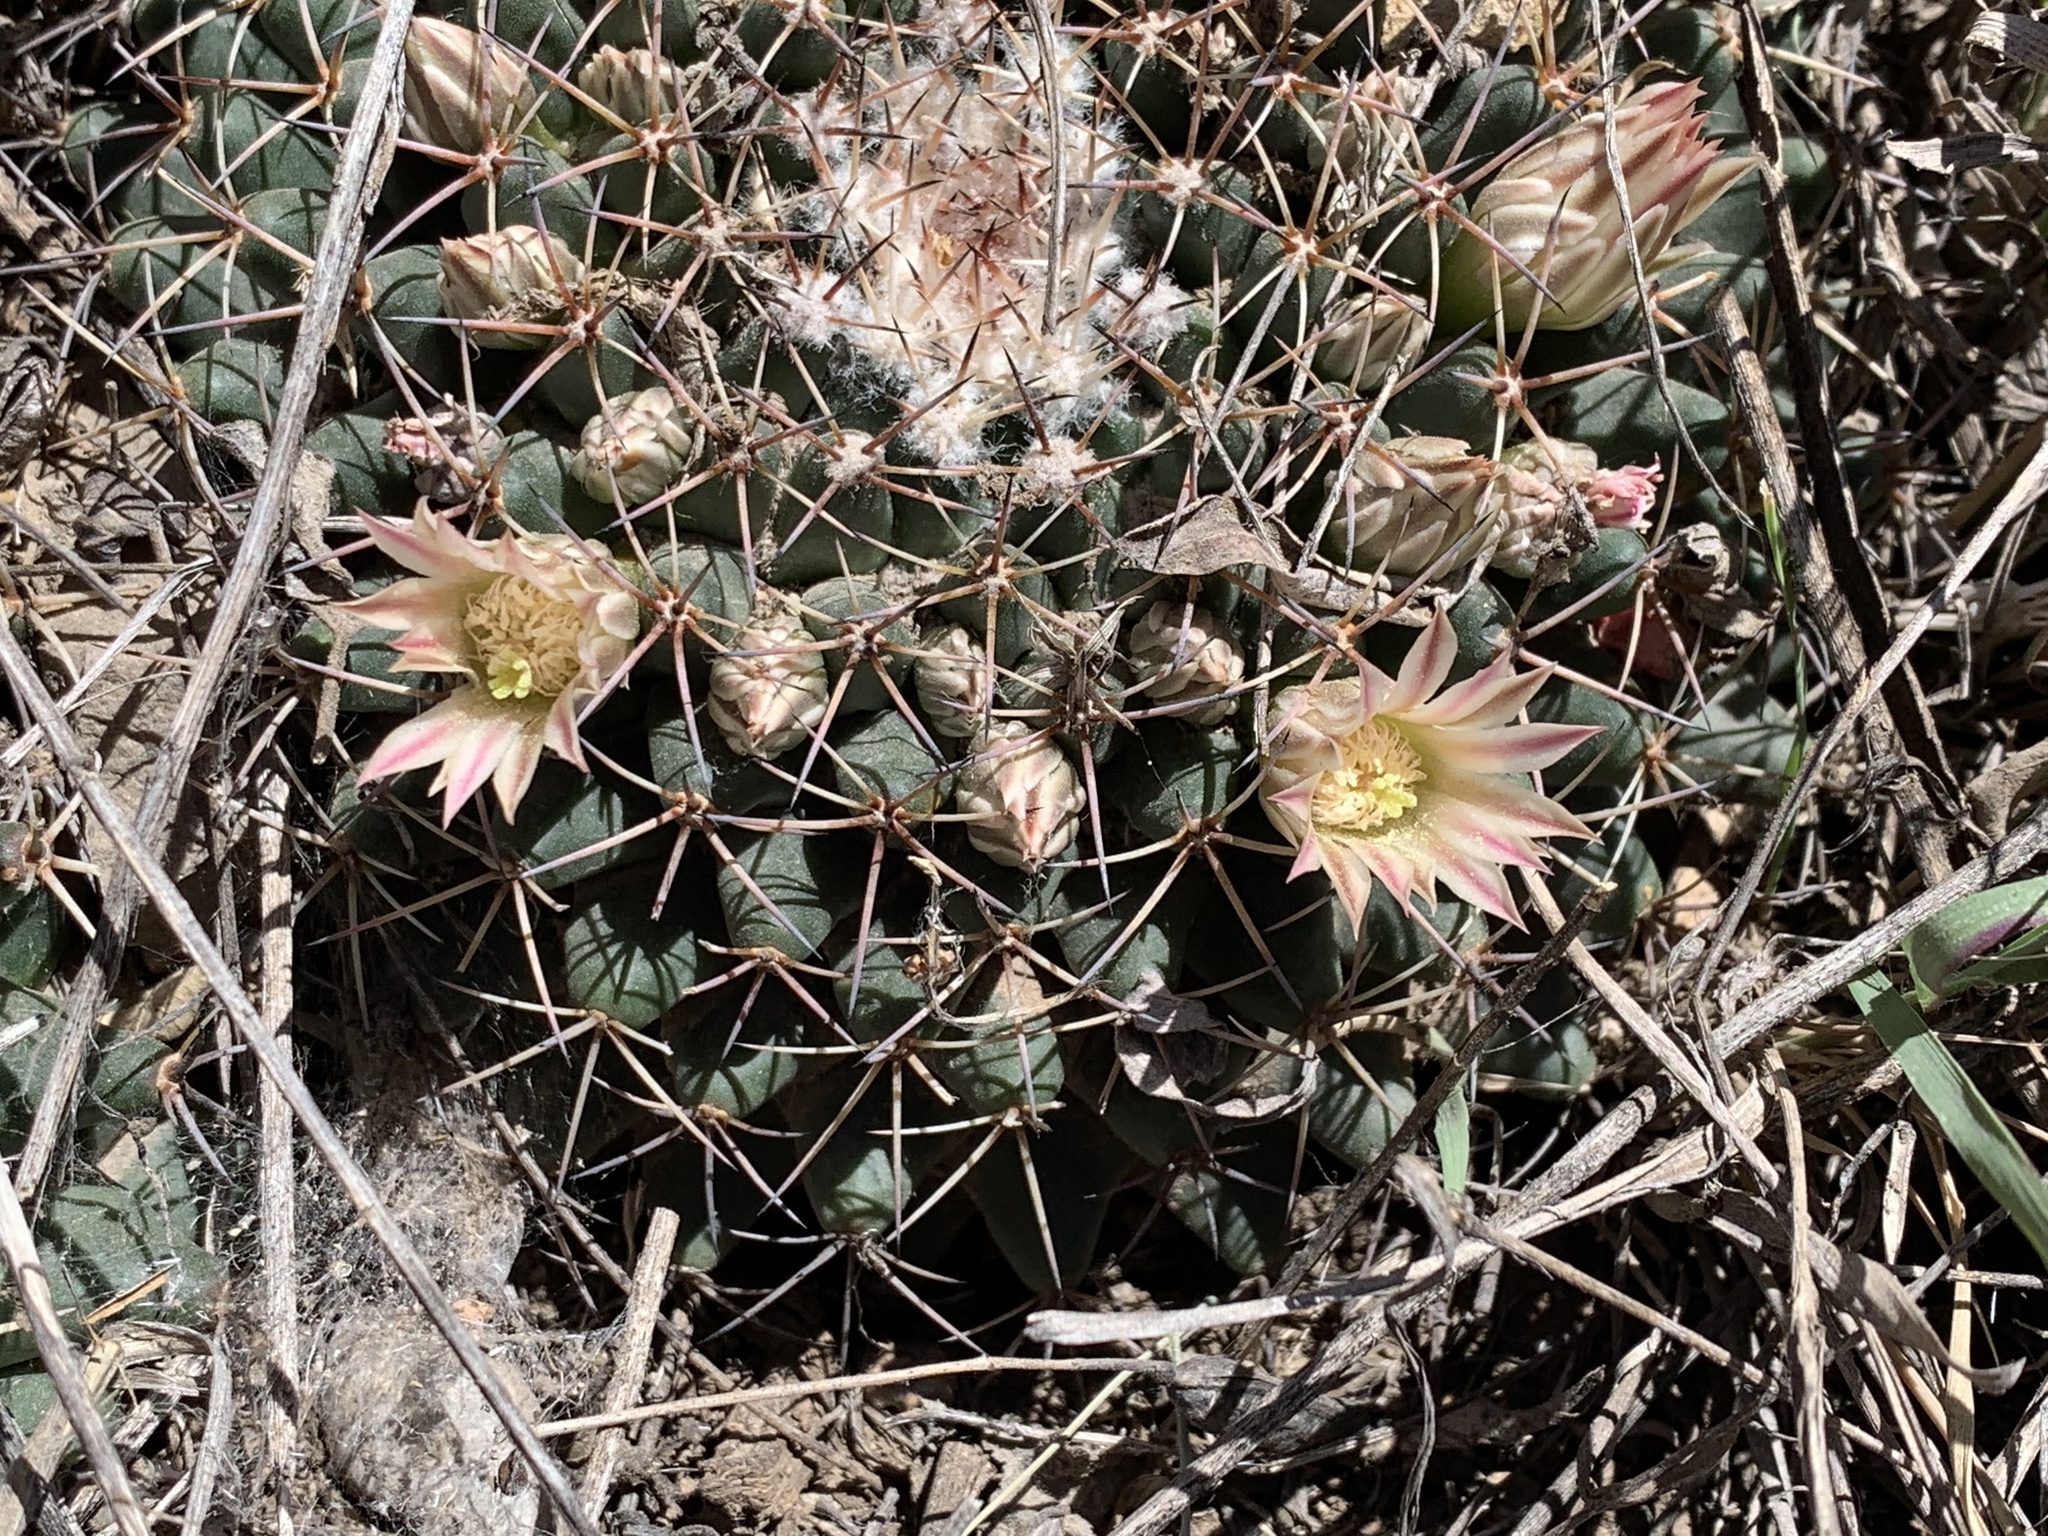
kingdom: Plantae
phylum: Tracheophyta
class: Magnoliopsida
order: Caryophyllales
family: Cactaceae
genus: Mammillaria
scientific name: Mammillaria heyderi
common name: Little nipple cactus
